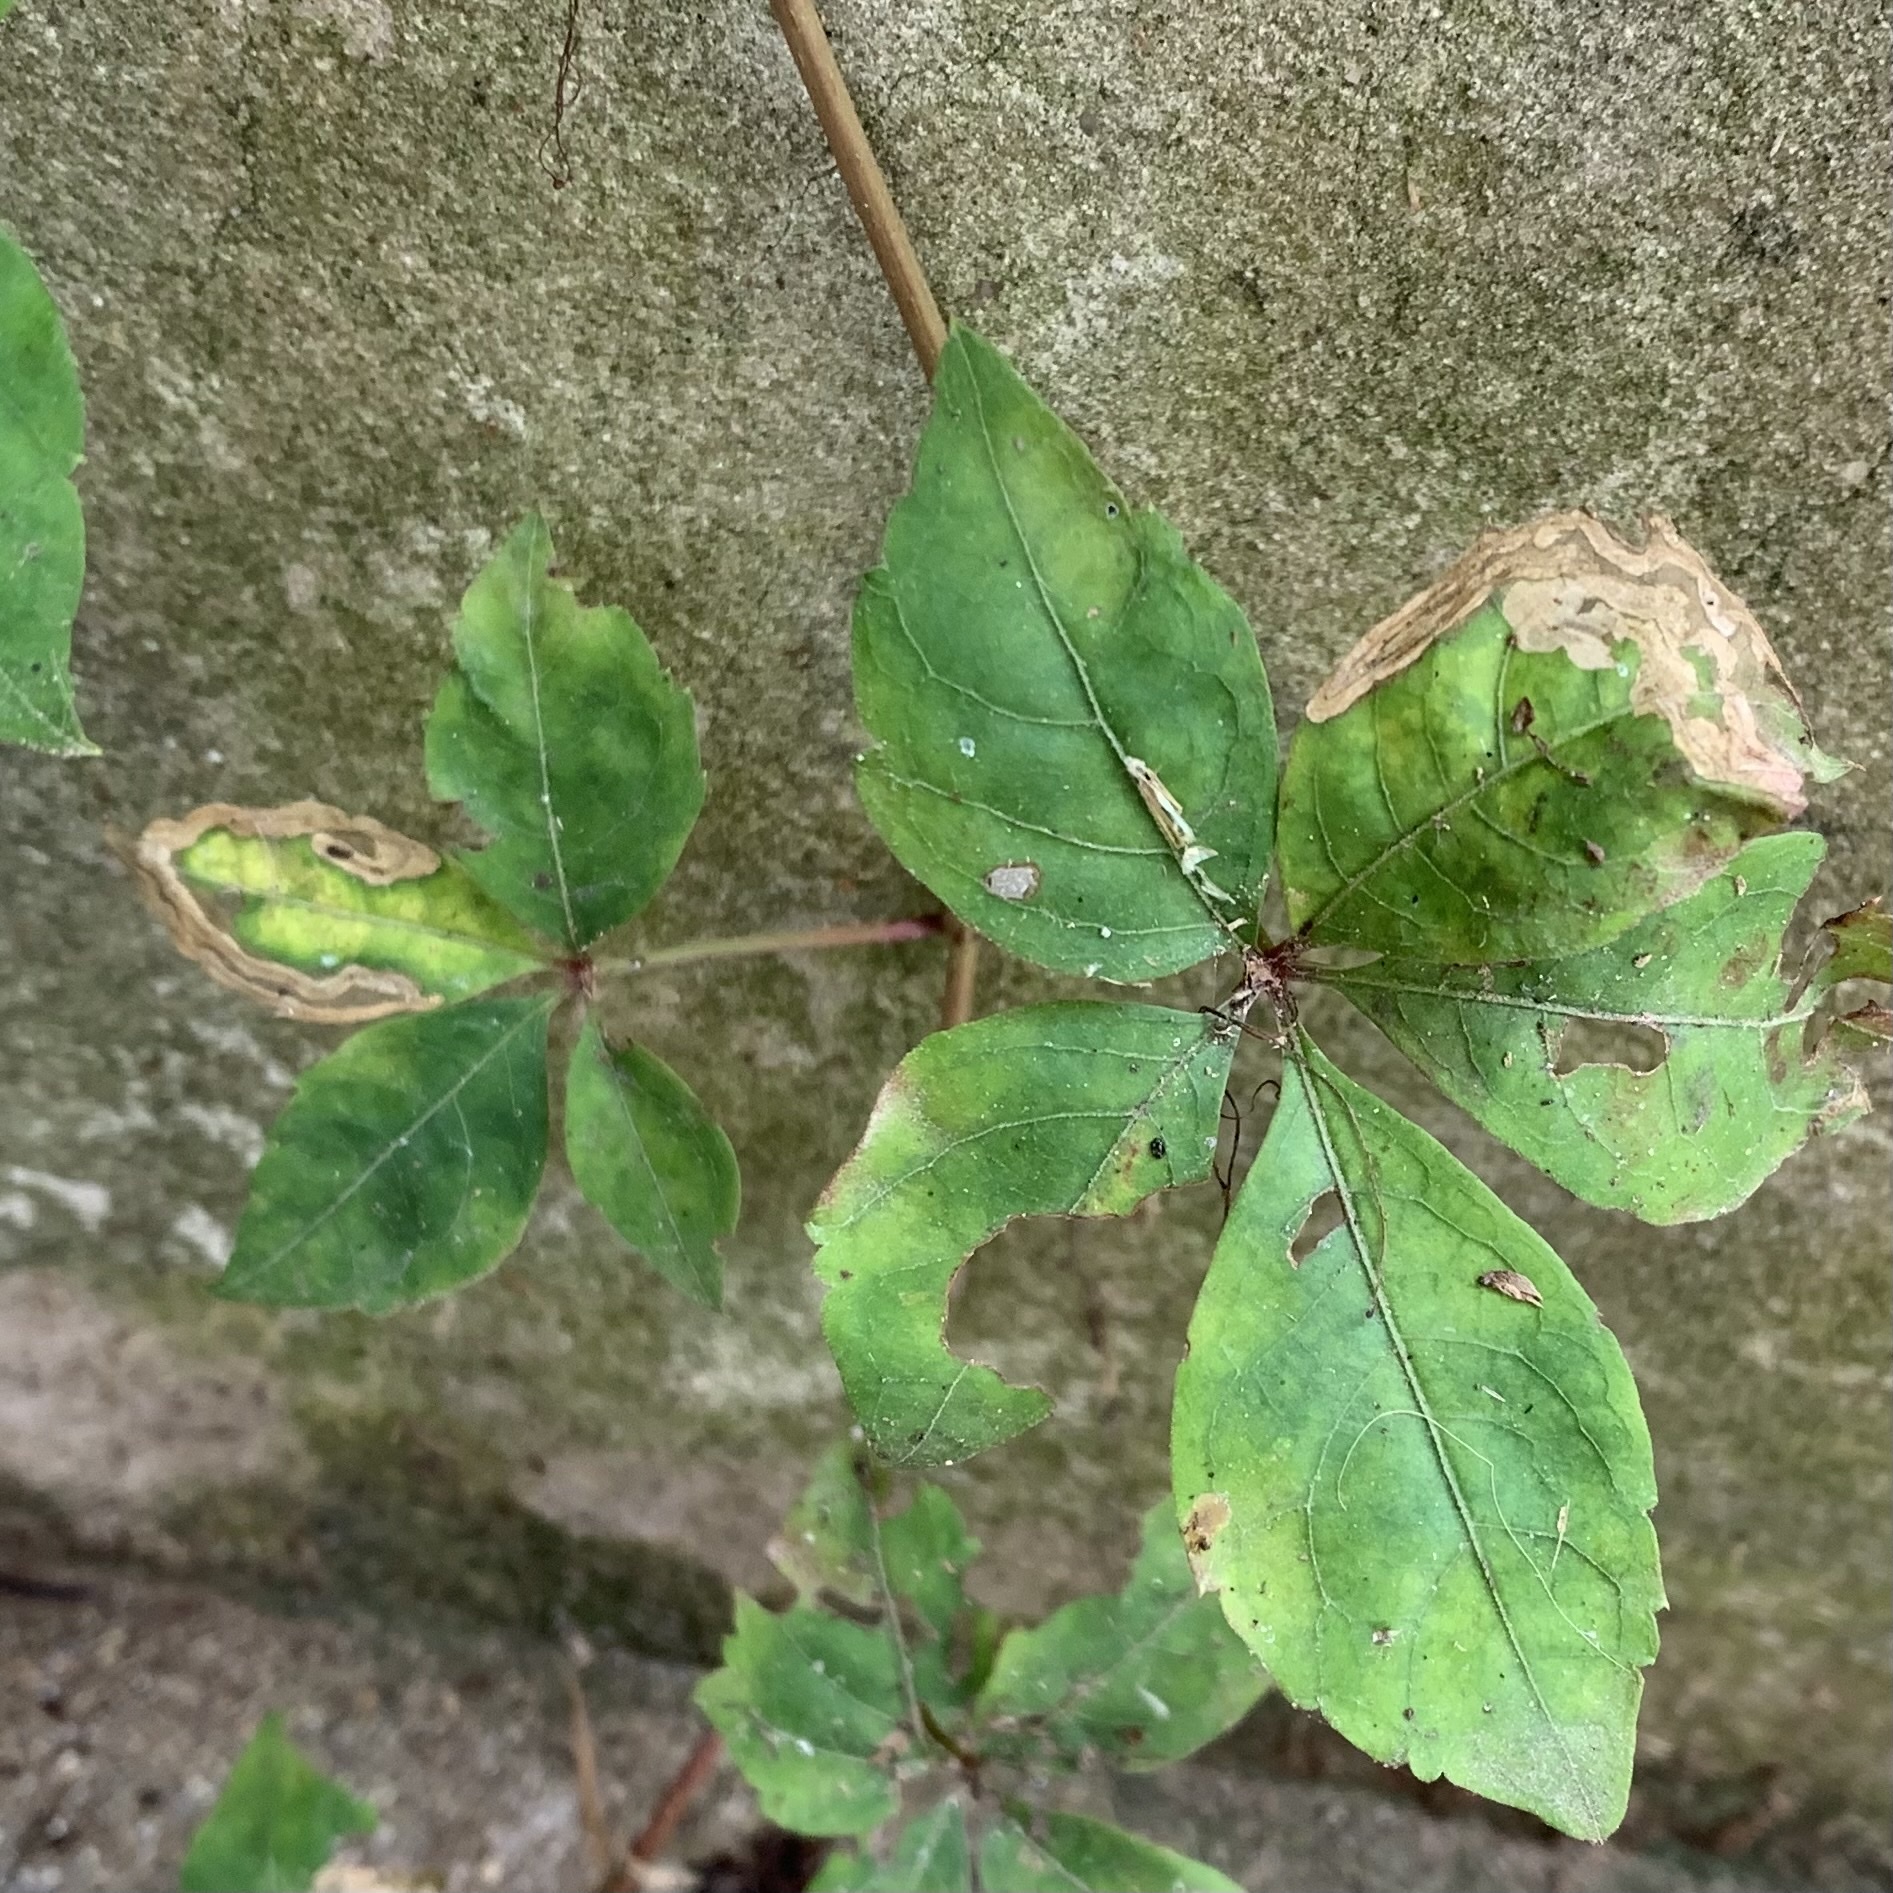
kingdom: Animalia
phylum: Arthropoda
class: Insecta
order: Coleoptera
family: Curculionidae
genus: Orchestomerus
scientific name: Orchestomerus eisemani
